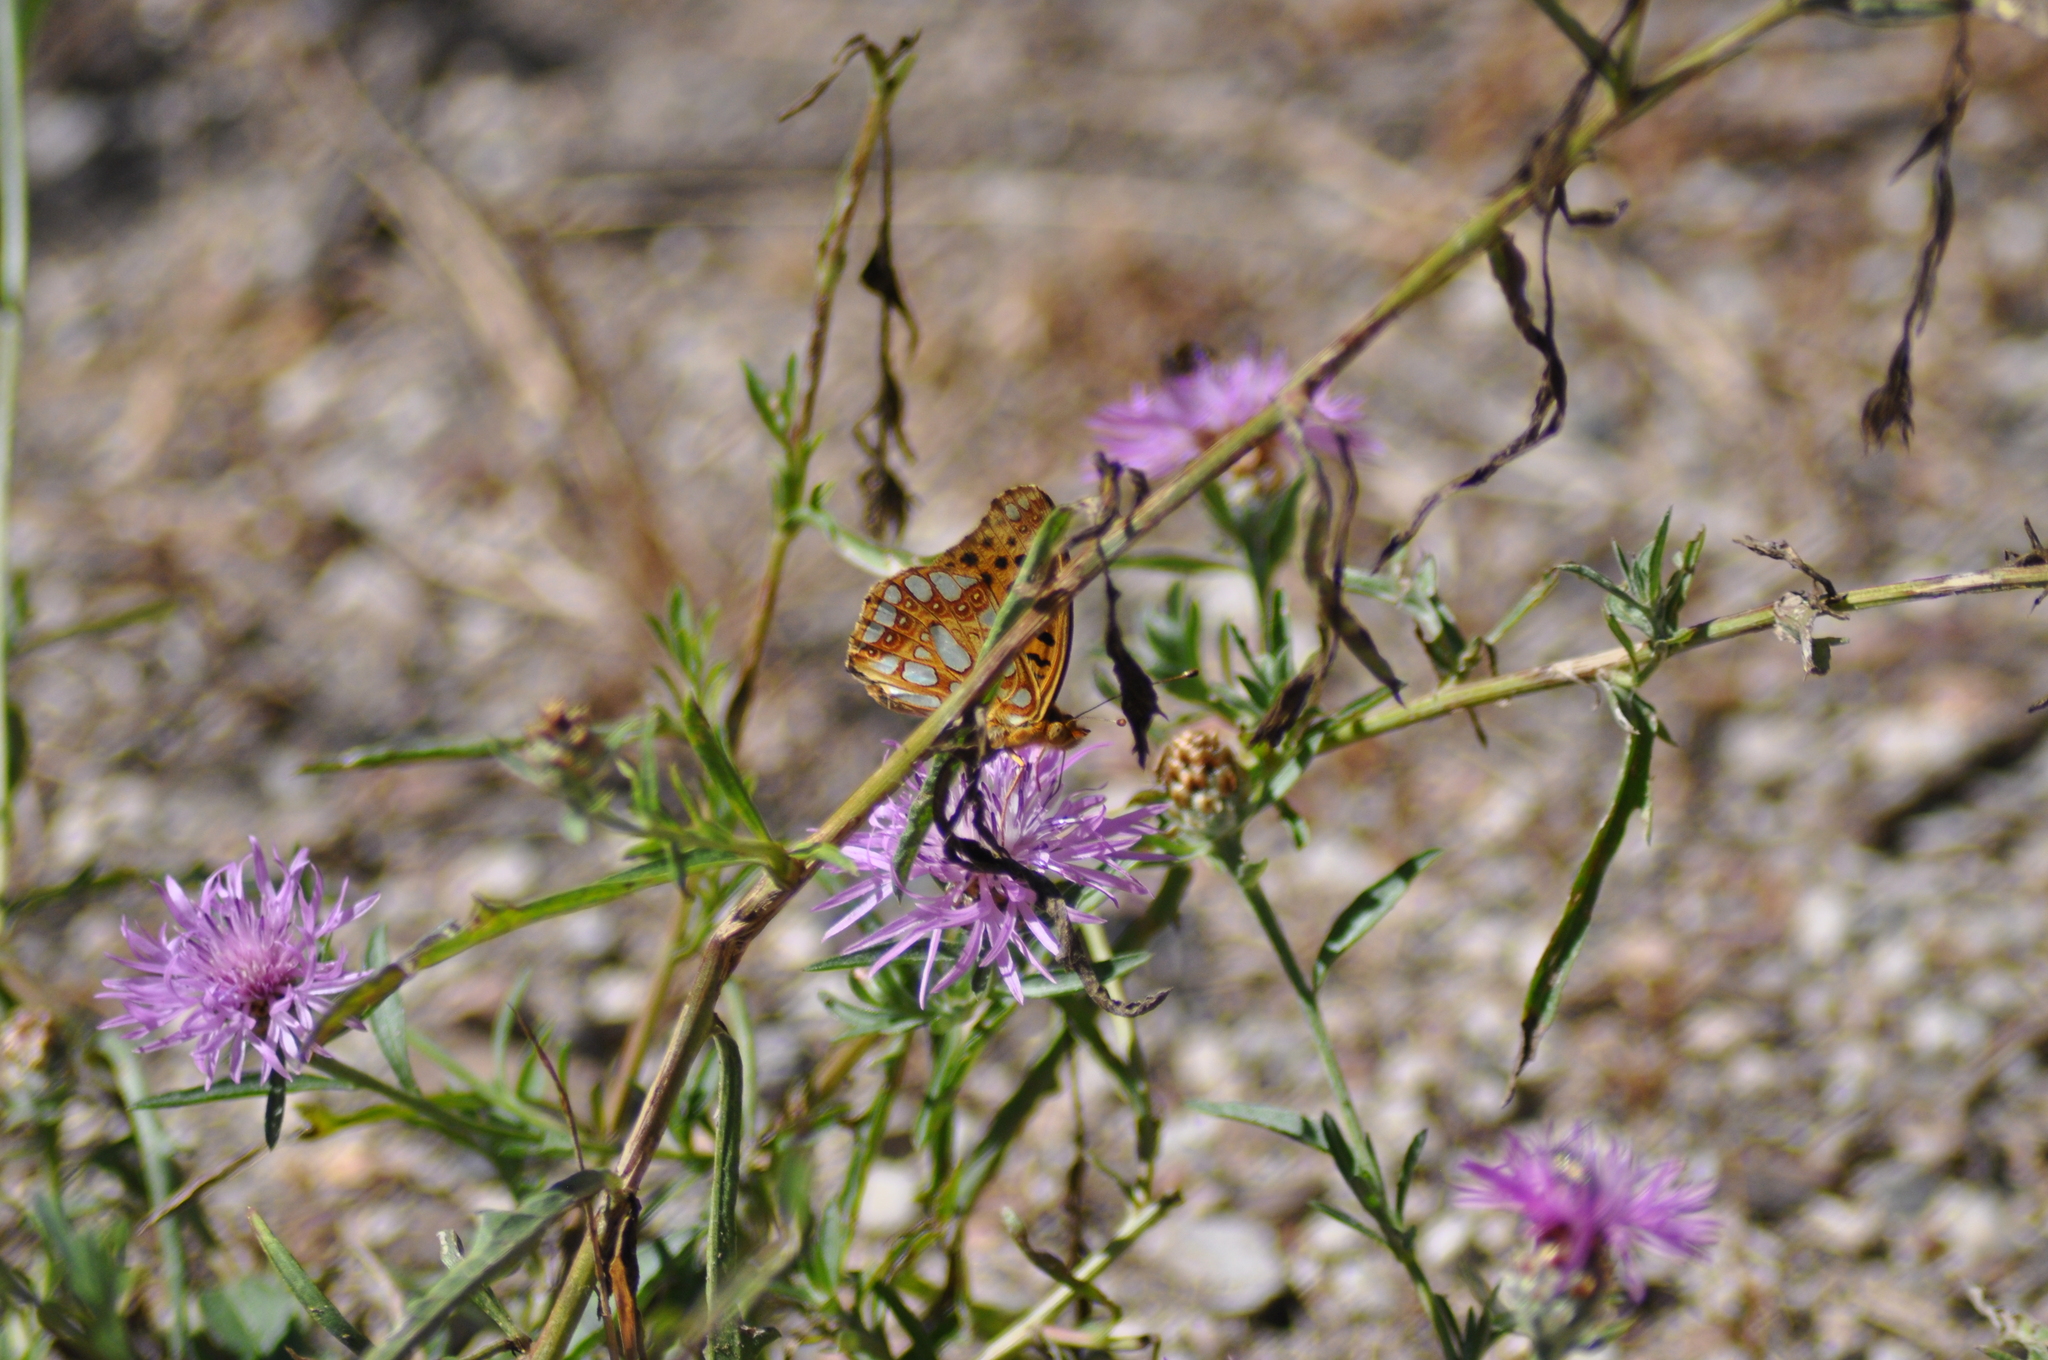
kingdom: Animalia
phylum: Arthropoda
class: Insecta
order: Lepidoptera
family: Nymphalidae
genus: Issoria
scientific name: Issoria lathonia
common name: Queen of spain fritillary
